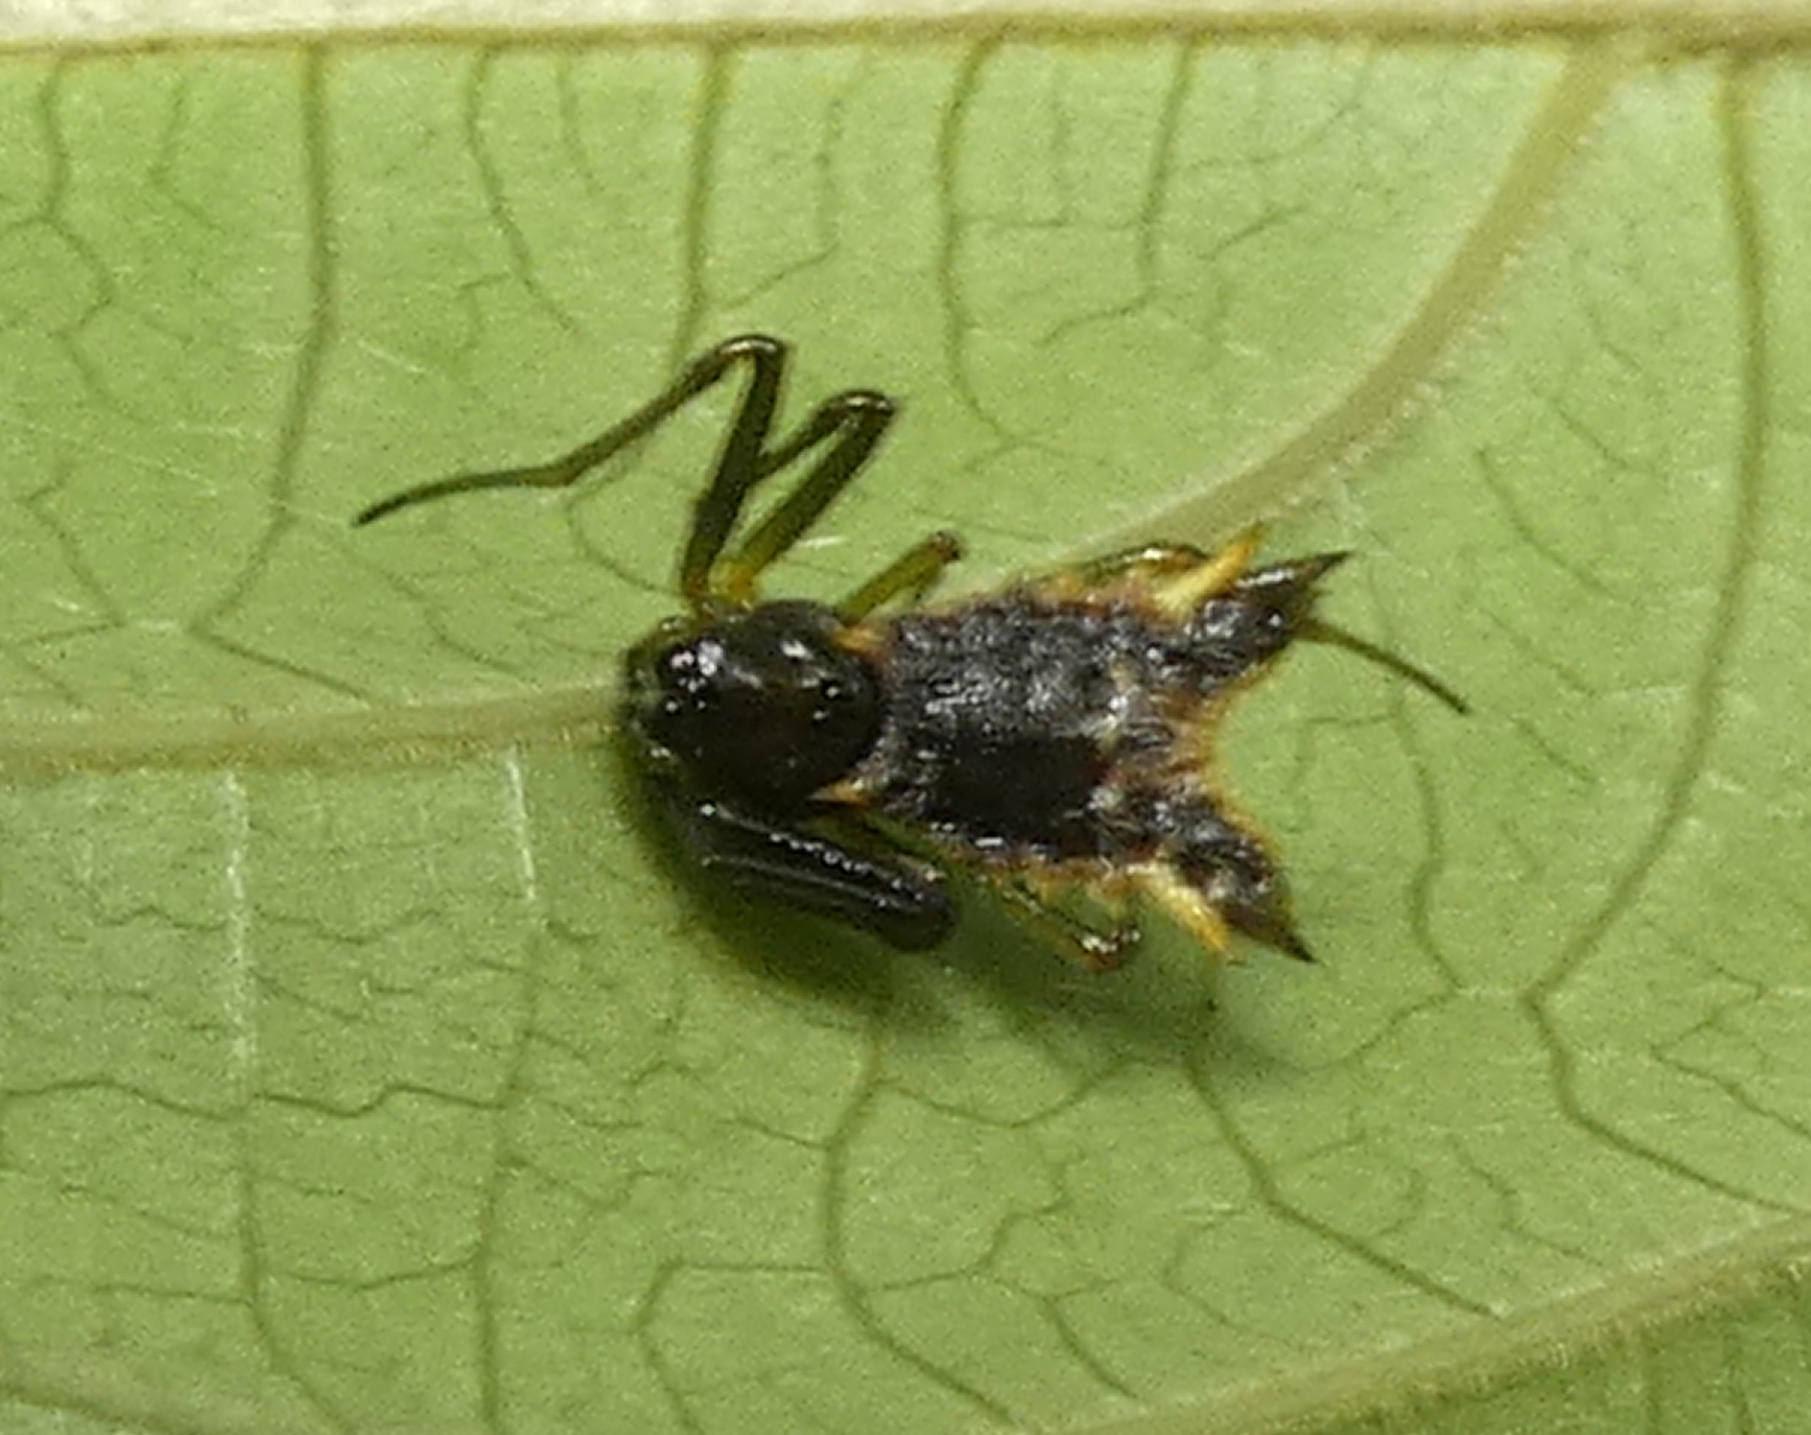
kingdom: Animalia
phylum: Arthropoda
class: Arachnida
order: Araneae
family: Araneidae
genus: Micrathena
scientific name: Micrathena triangularis
